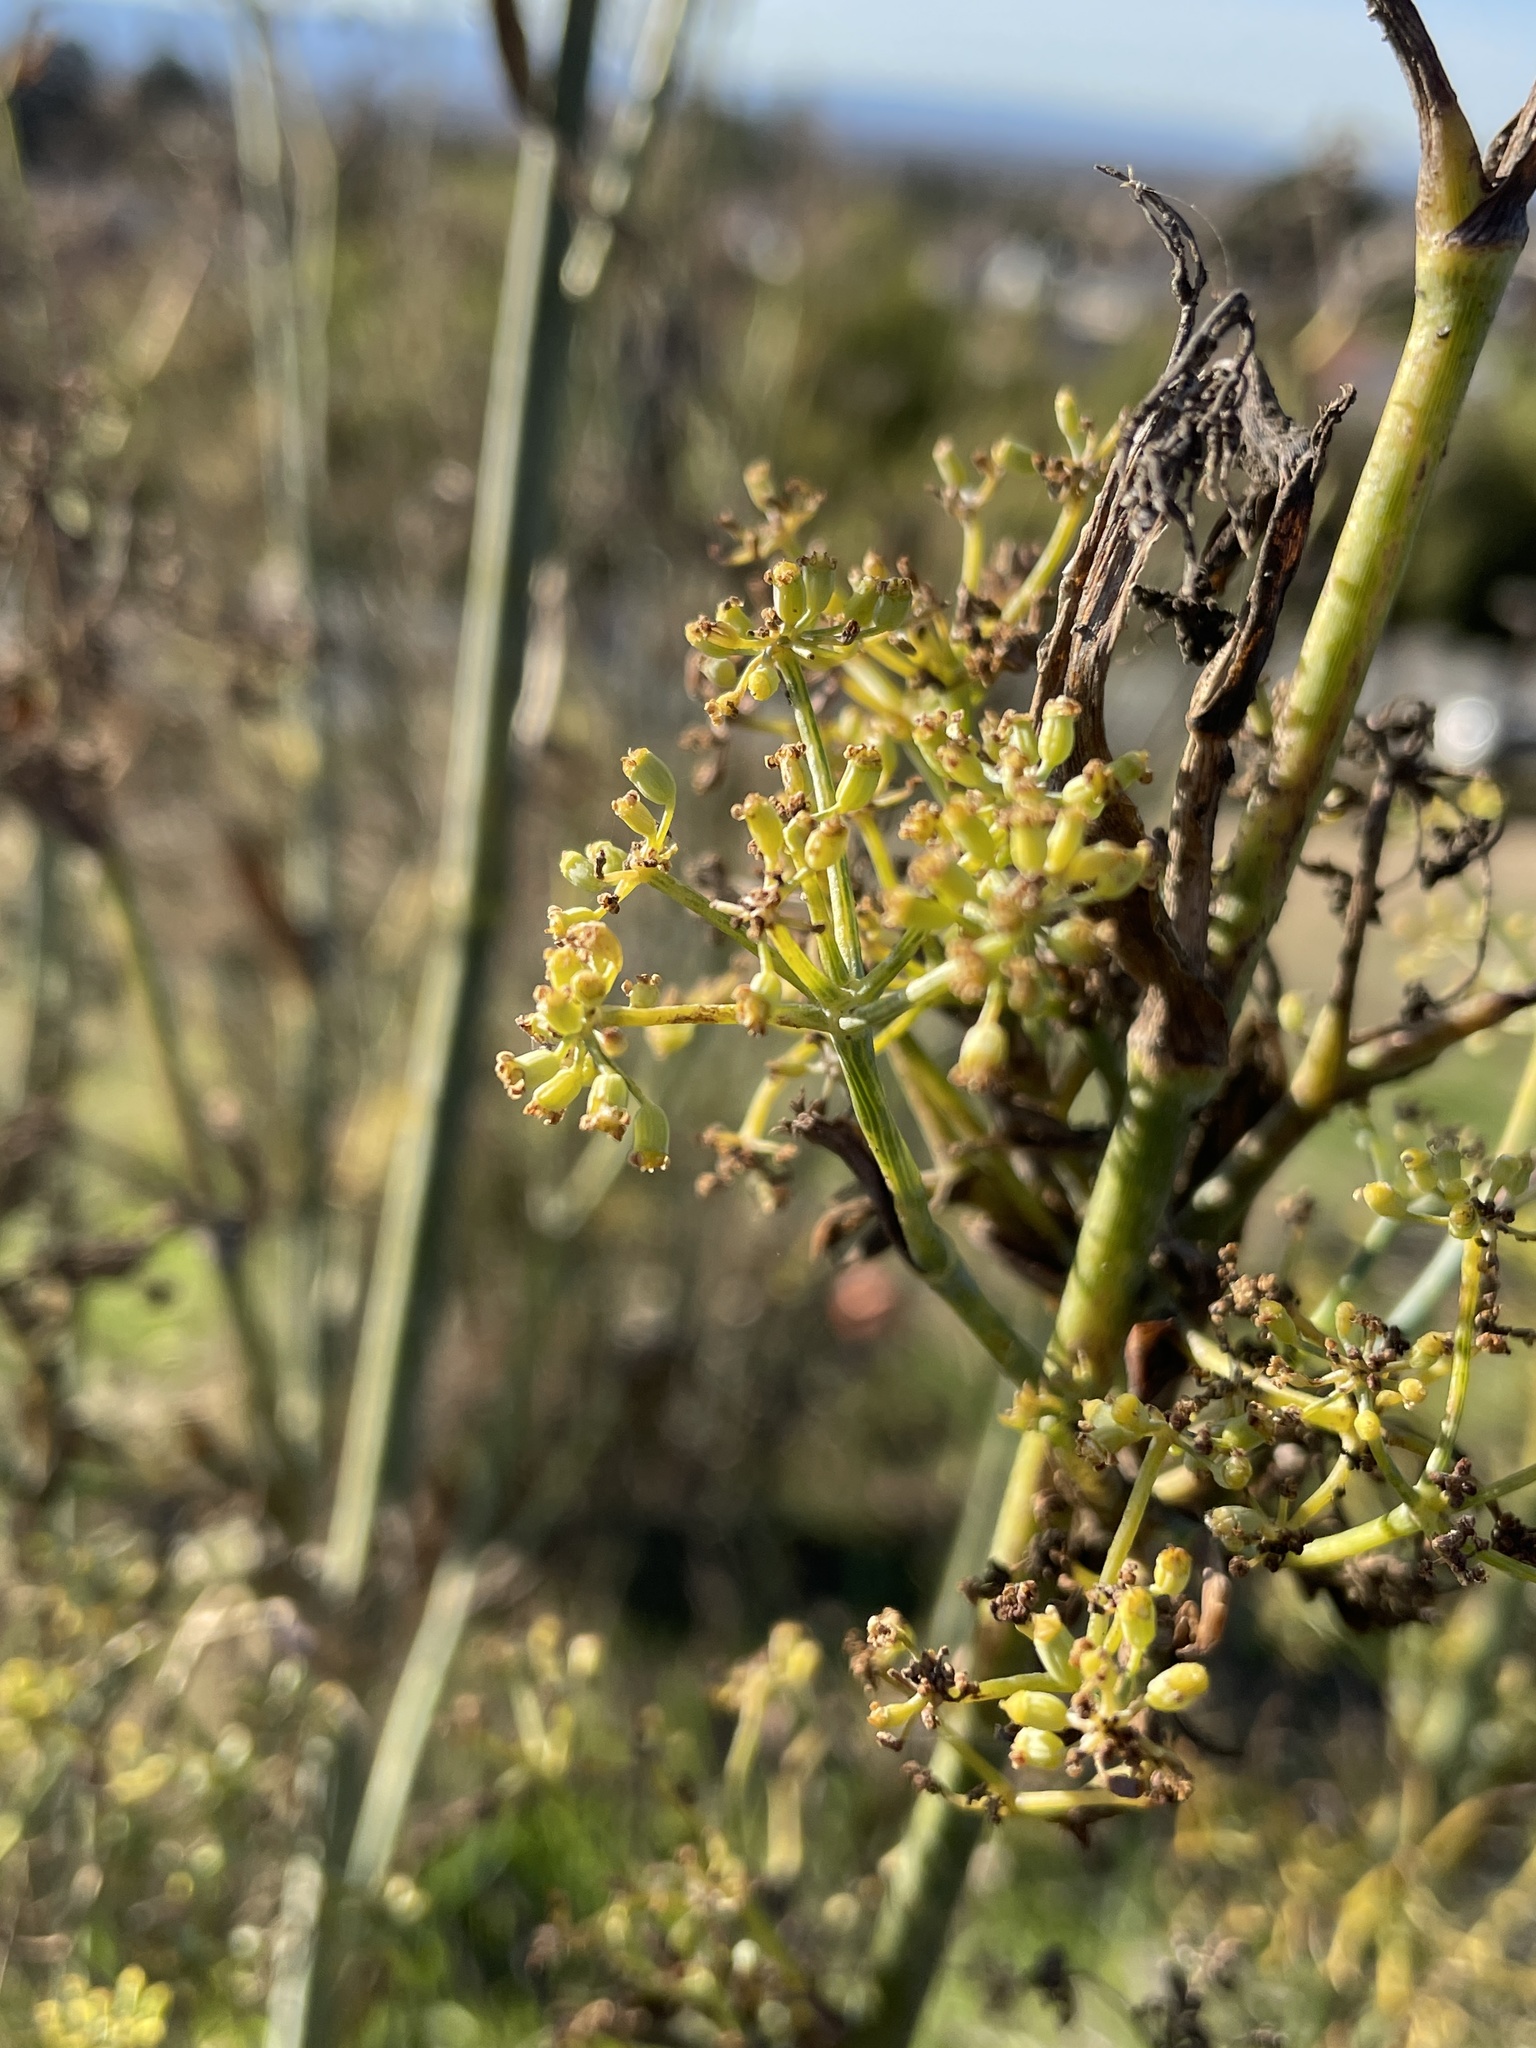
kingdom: Plantae
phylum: Tracheophyta
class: Magnoliopsida
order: Apiales
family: Apiaceae
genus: Foeniculum
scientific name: Foeniculum vulgare
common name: Fennel
